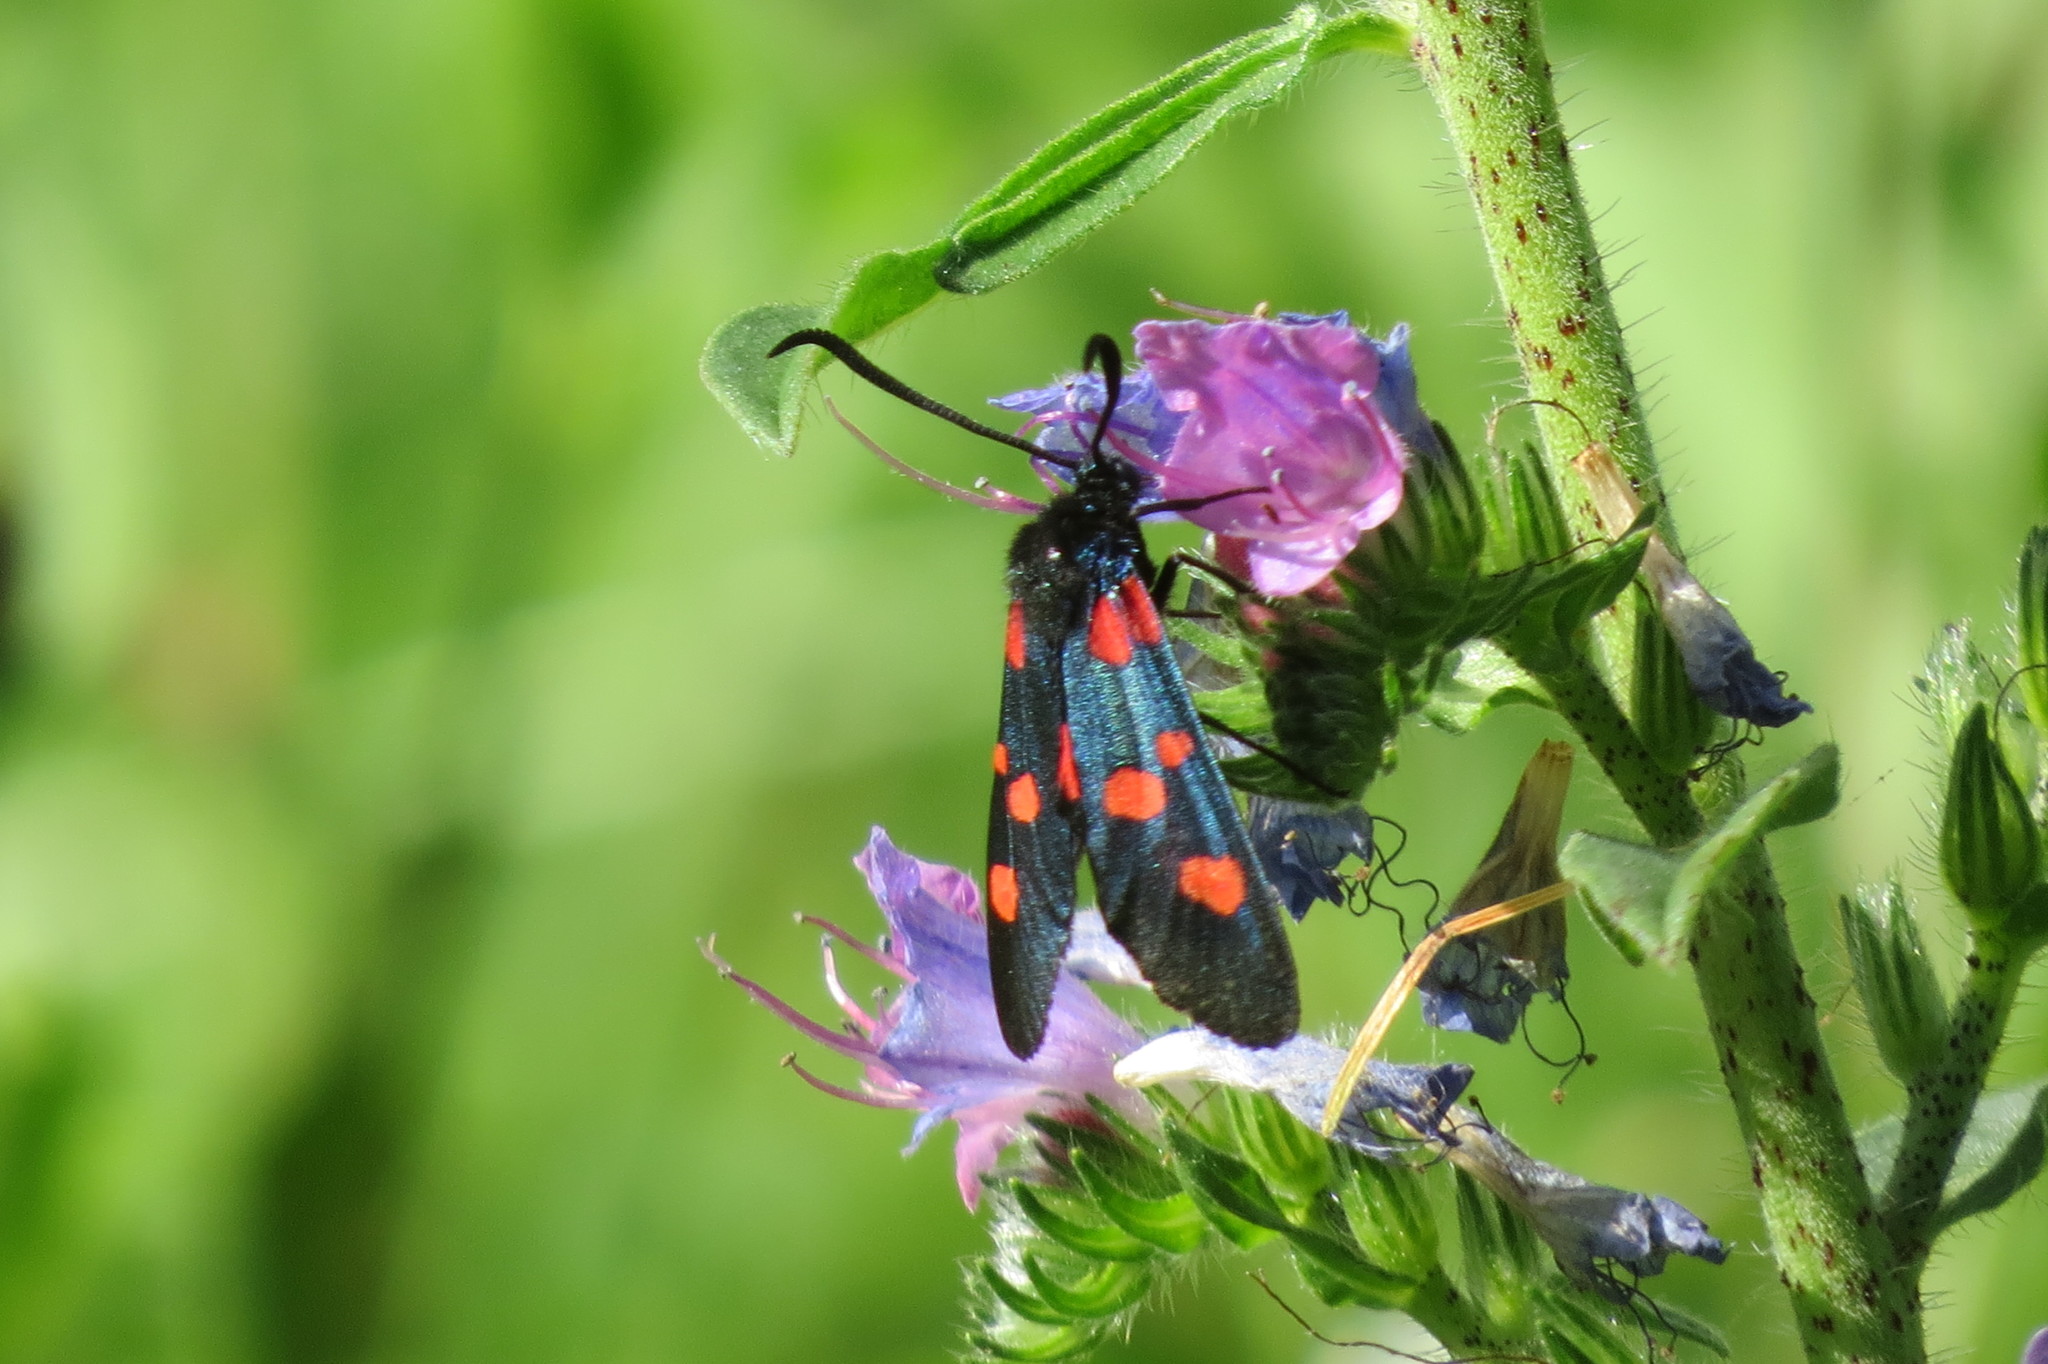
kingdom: Animalia
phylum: Arthropoda
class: Insecta
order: Lepidoptera
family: Zygaenidae
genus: Zygaena
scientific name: Zygaena lonicerae
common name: Narrow-bordered five-spot burnet
